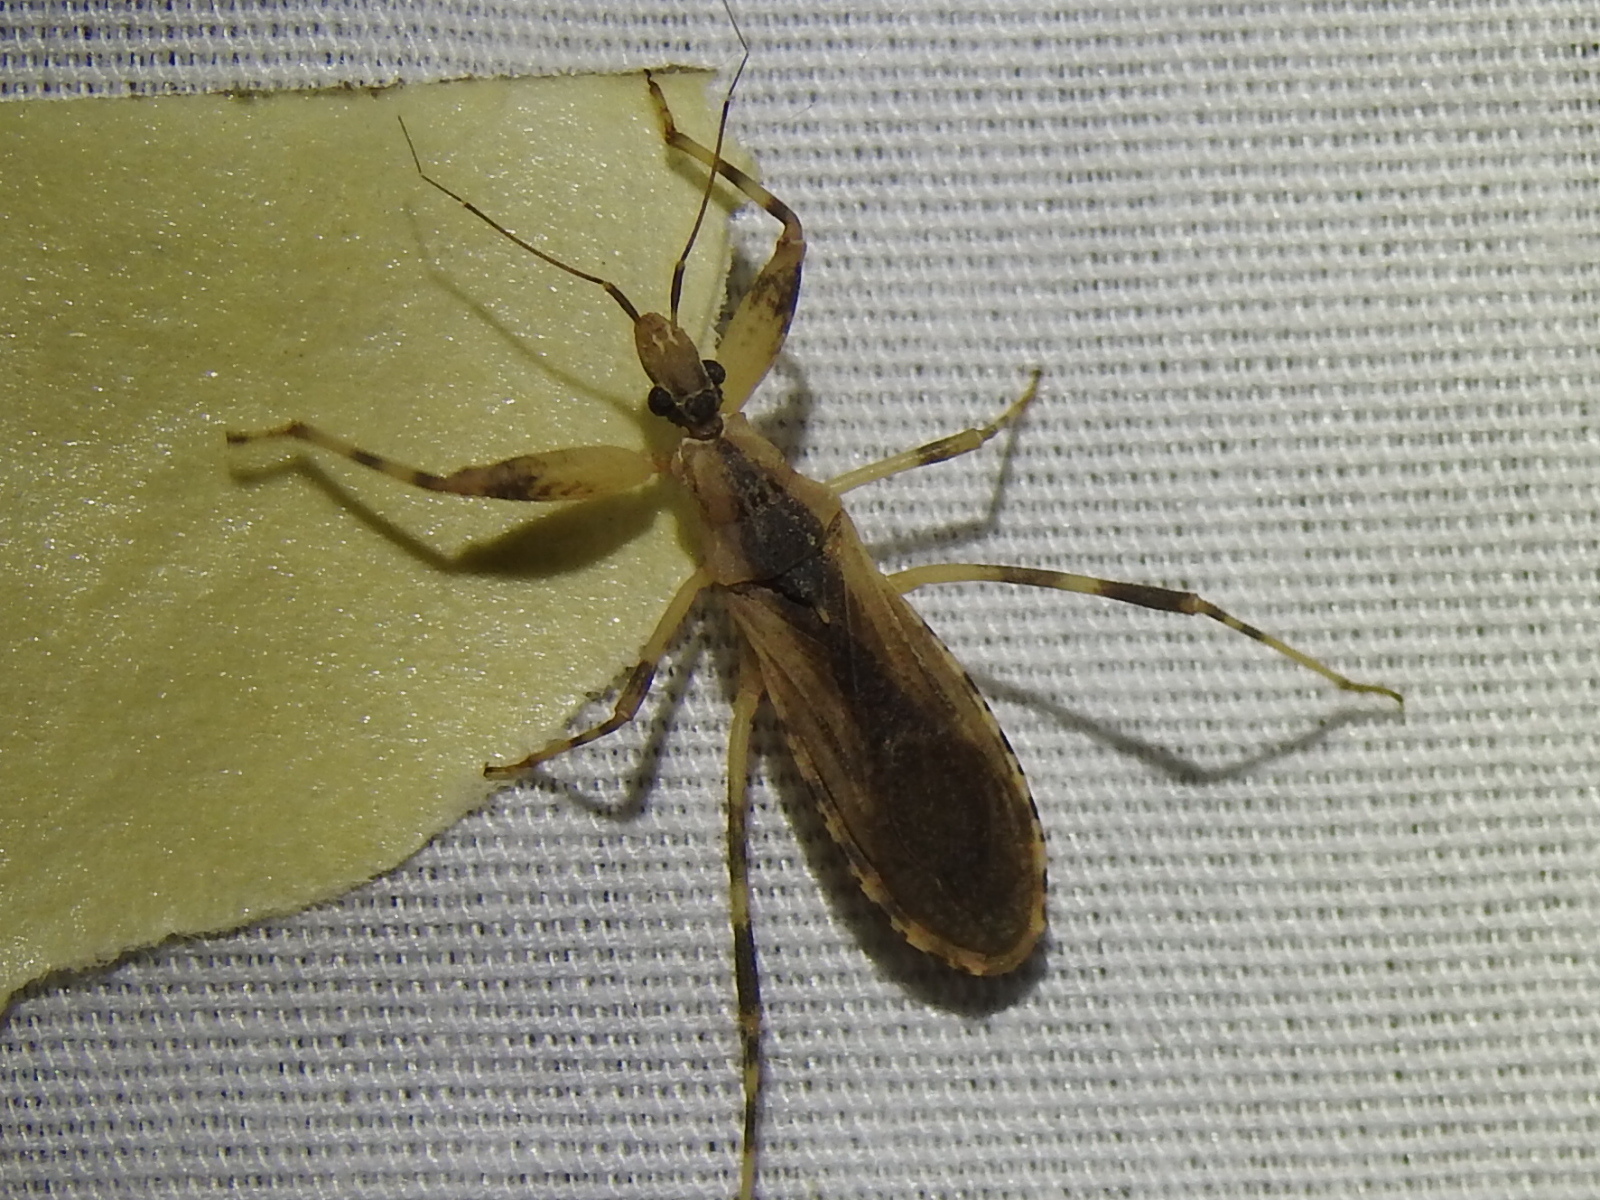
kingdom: Animalia
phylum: Arthropoda
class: Insecta
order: Hemiptera
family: Reduviidae
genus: Oncocephalus
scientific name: Oncocephalus geniculatus
